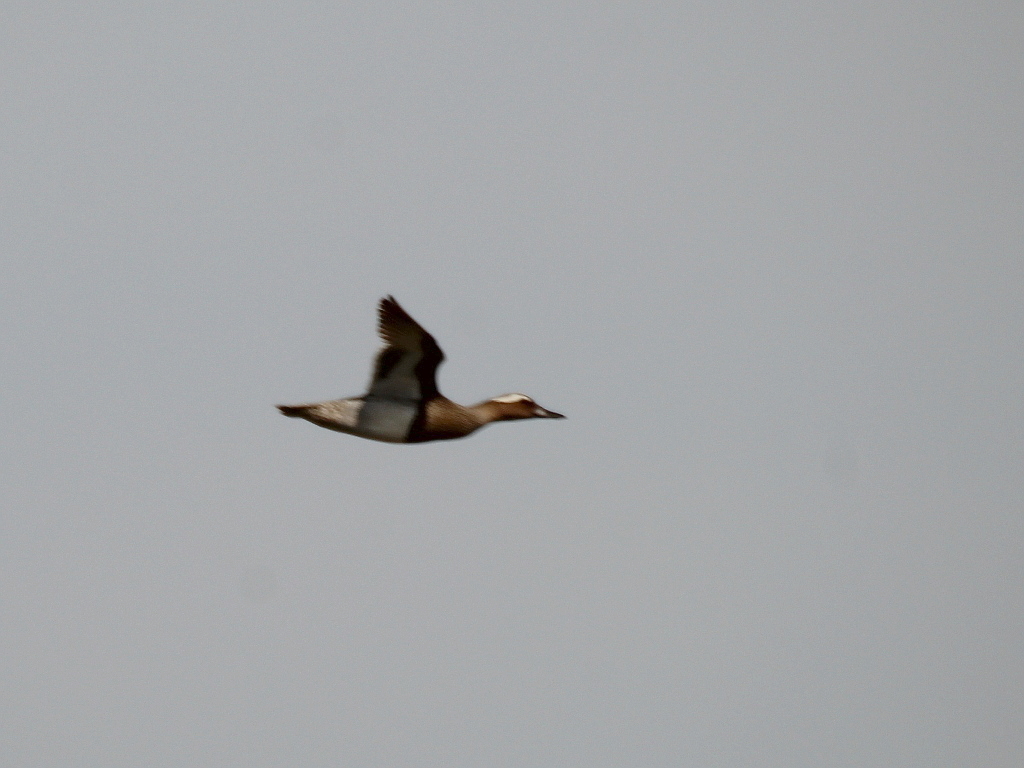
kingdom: Animalia
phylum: Chordata
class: Aves
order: Anseriformes
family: Anatidae
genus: Spatula
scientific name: Spatula querquedula
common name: Garganey
